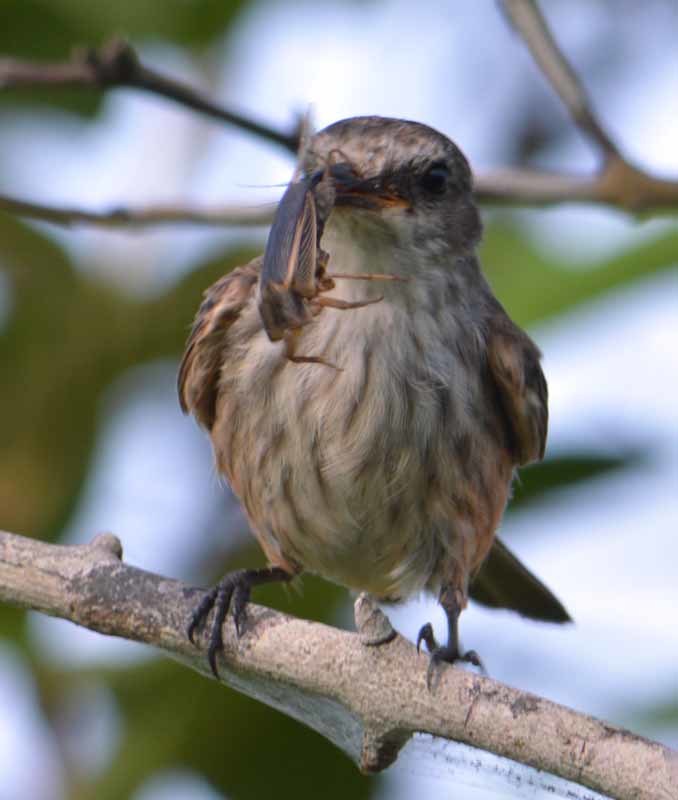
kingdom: Animalia
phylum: Chordata
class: Aves
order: Passeriformes
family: Tyrannidae
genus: Pyrocephalus
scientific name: Pyrocephalus rubinus
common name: Vermilion flycatcher
